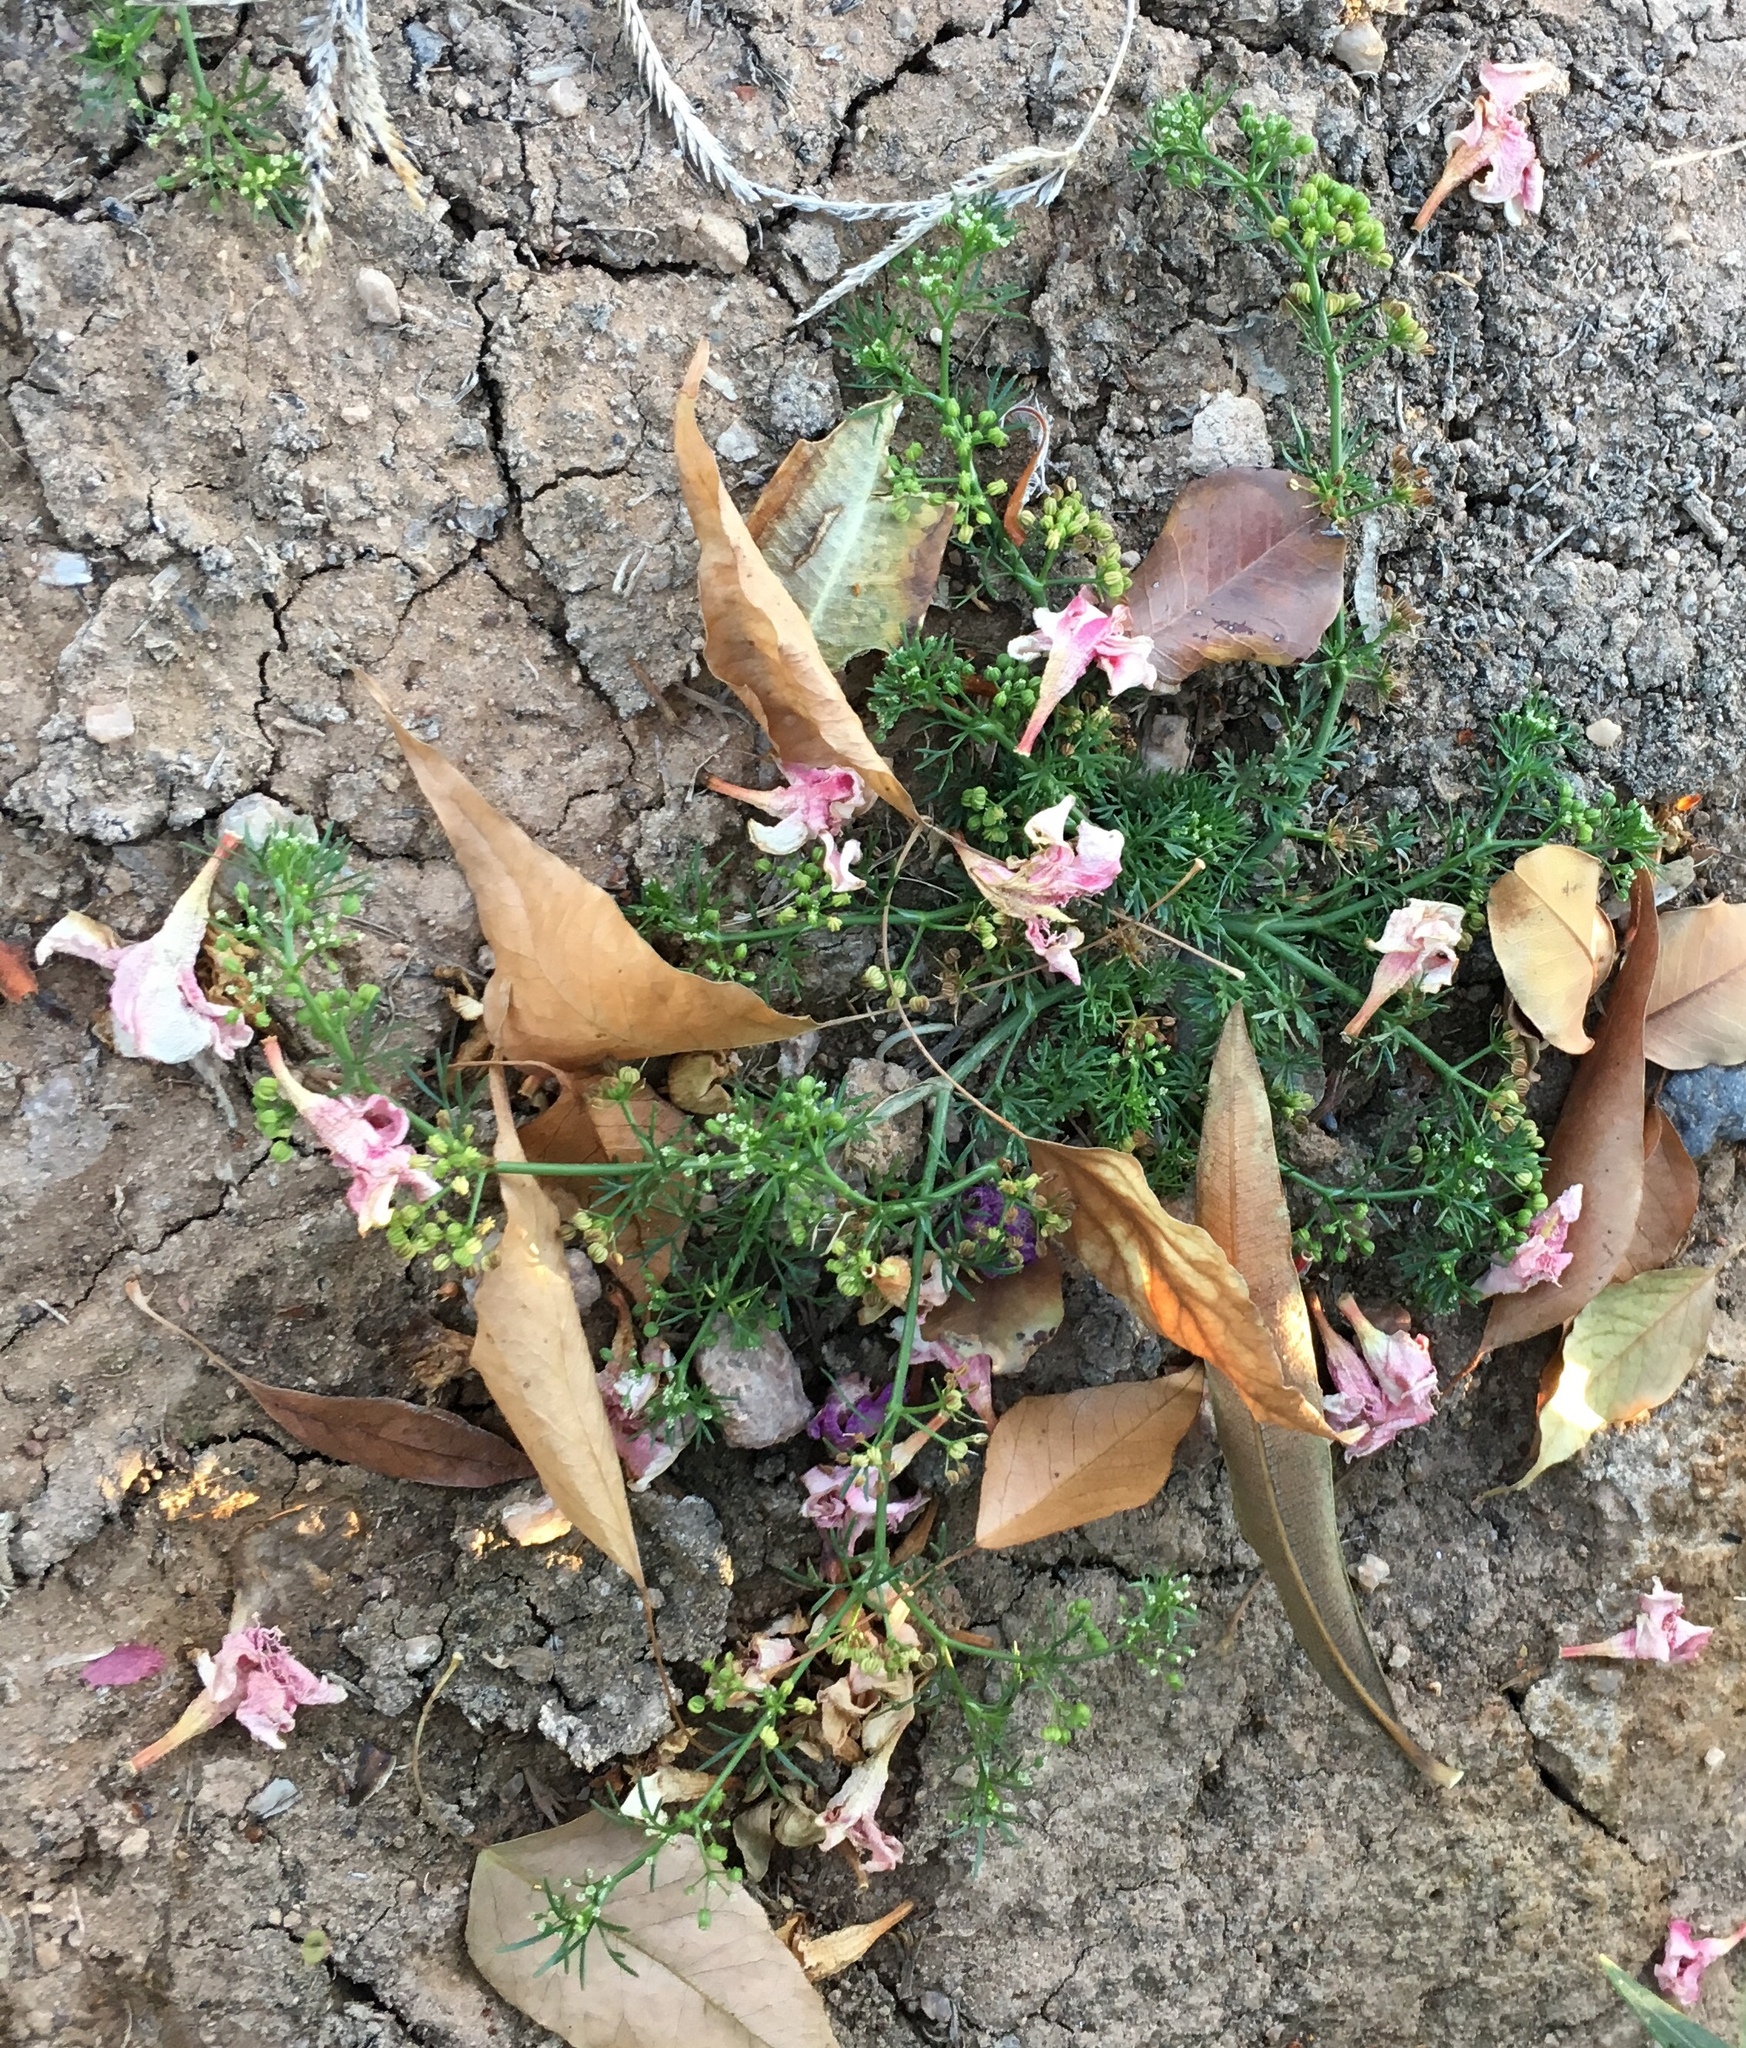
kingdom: Plantae
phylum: Tracheophyta
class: Magnoliopsida
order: Apiales
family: Apiaceae
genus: Cyclospermum
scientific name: Cyclospermum leptophyllum
